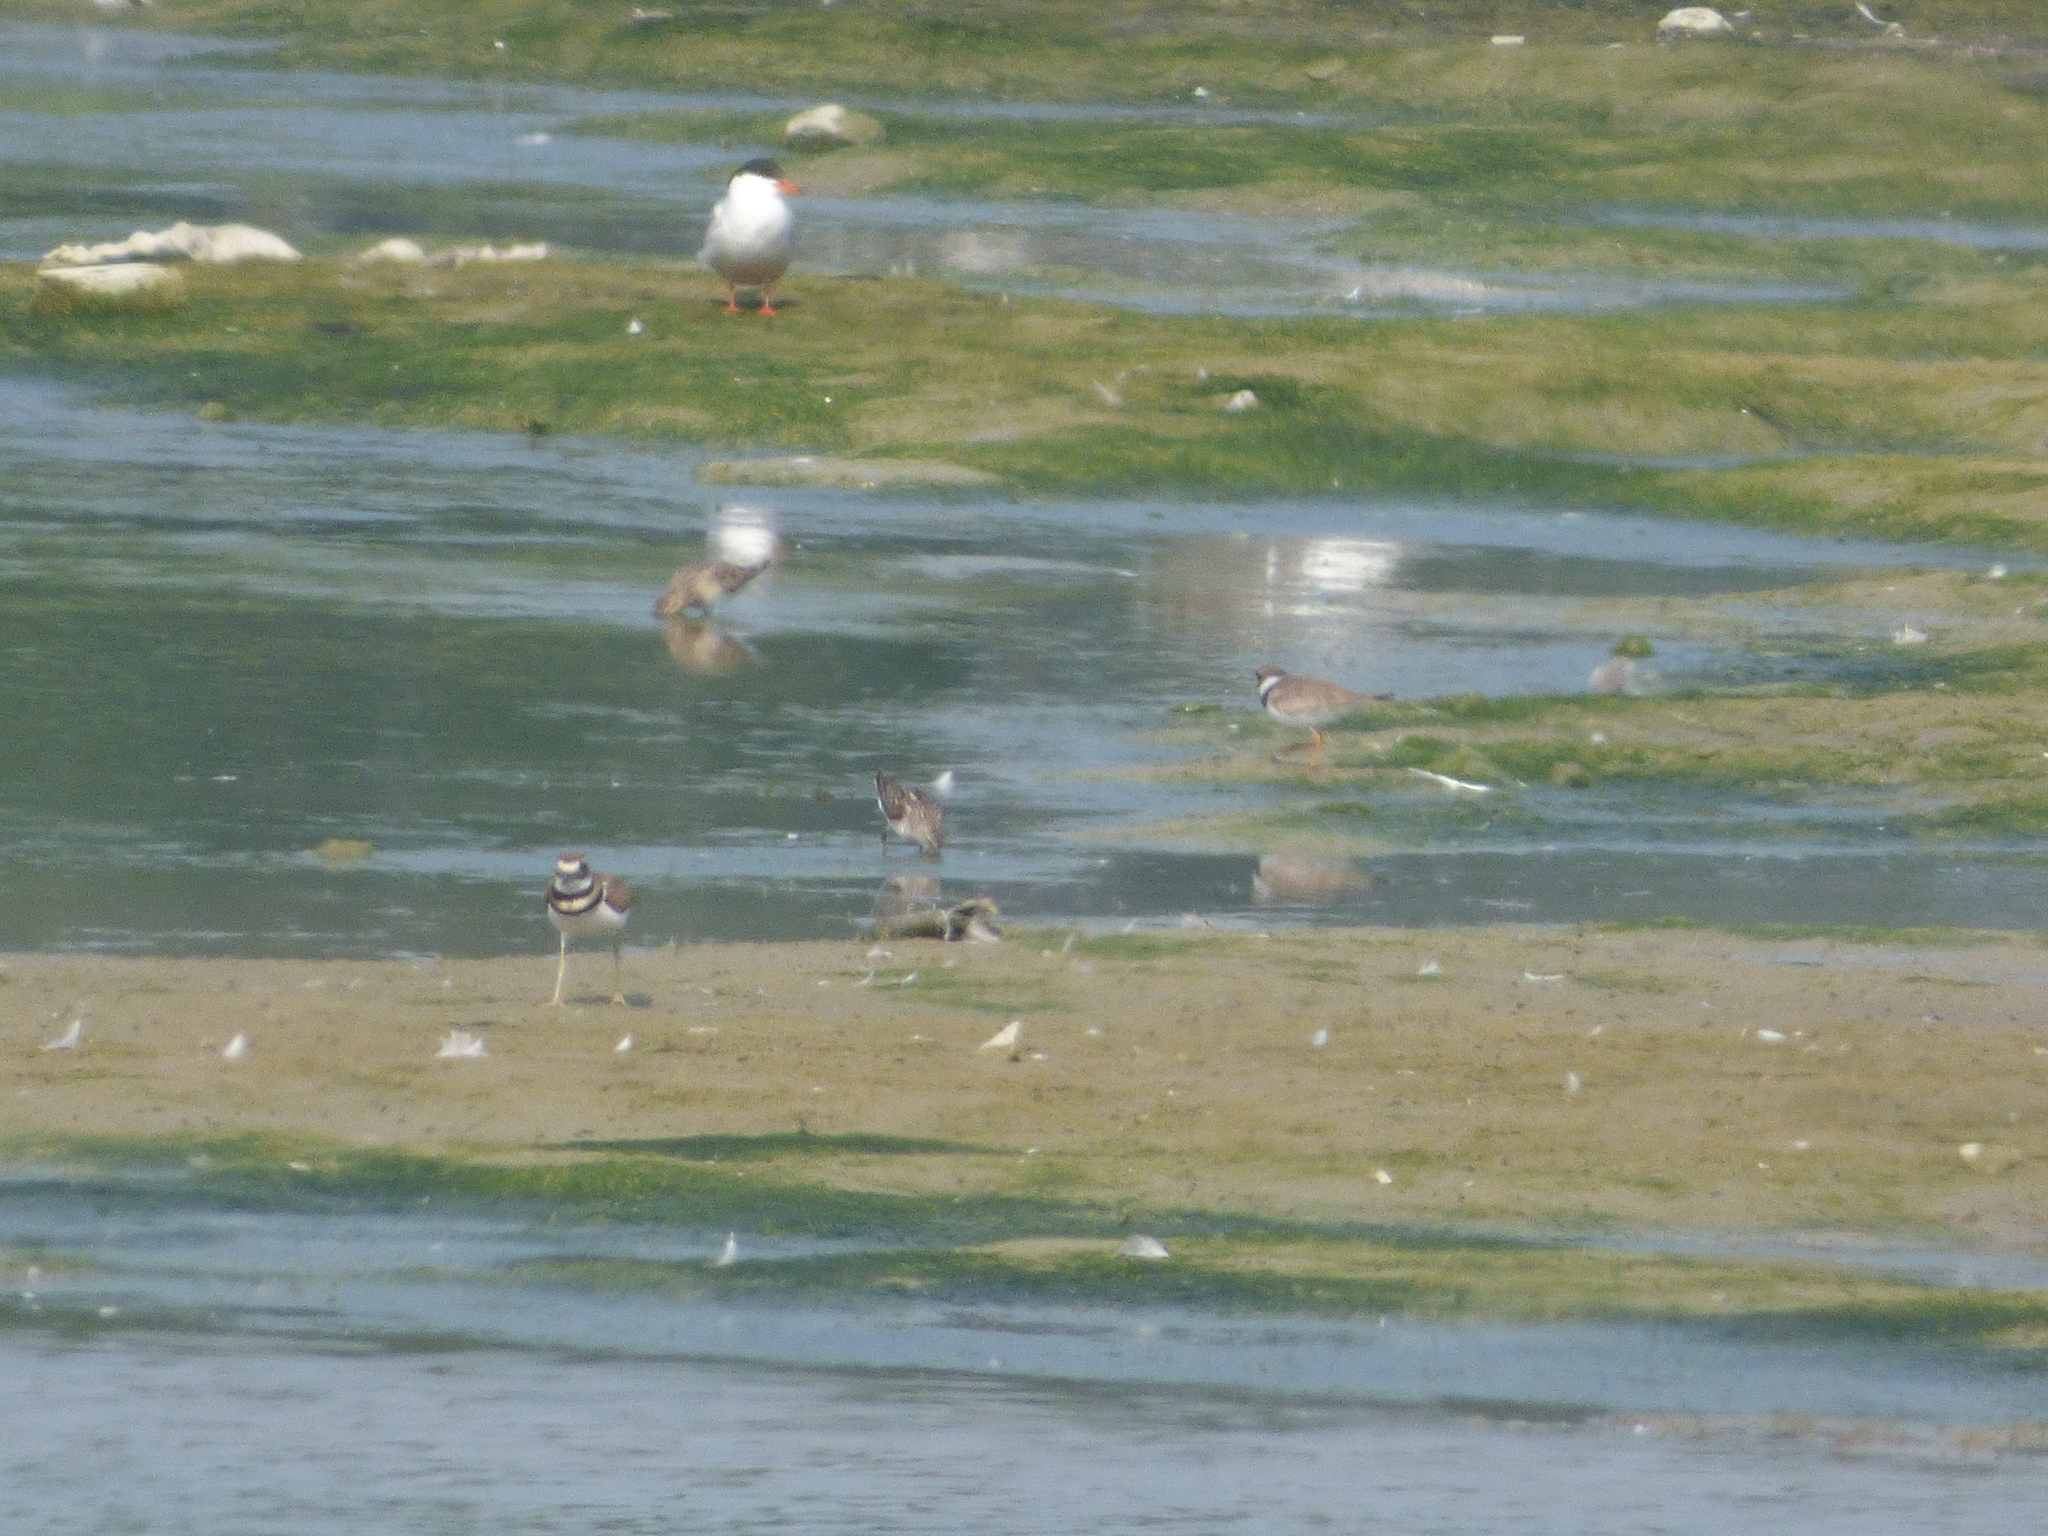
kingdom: Animalia
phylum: Chordata
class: Aves
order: Charadriiformes
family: Charadriidae
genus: Charadrius
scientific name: Charadrius vociferus
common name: Killdeer
